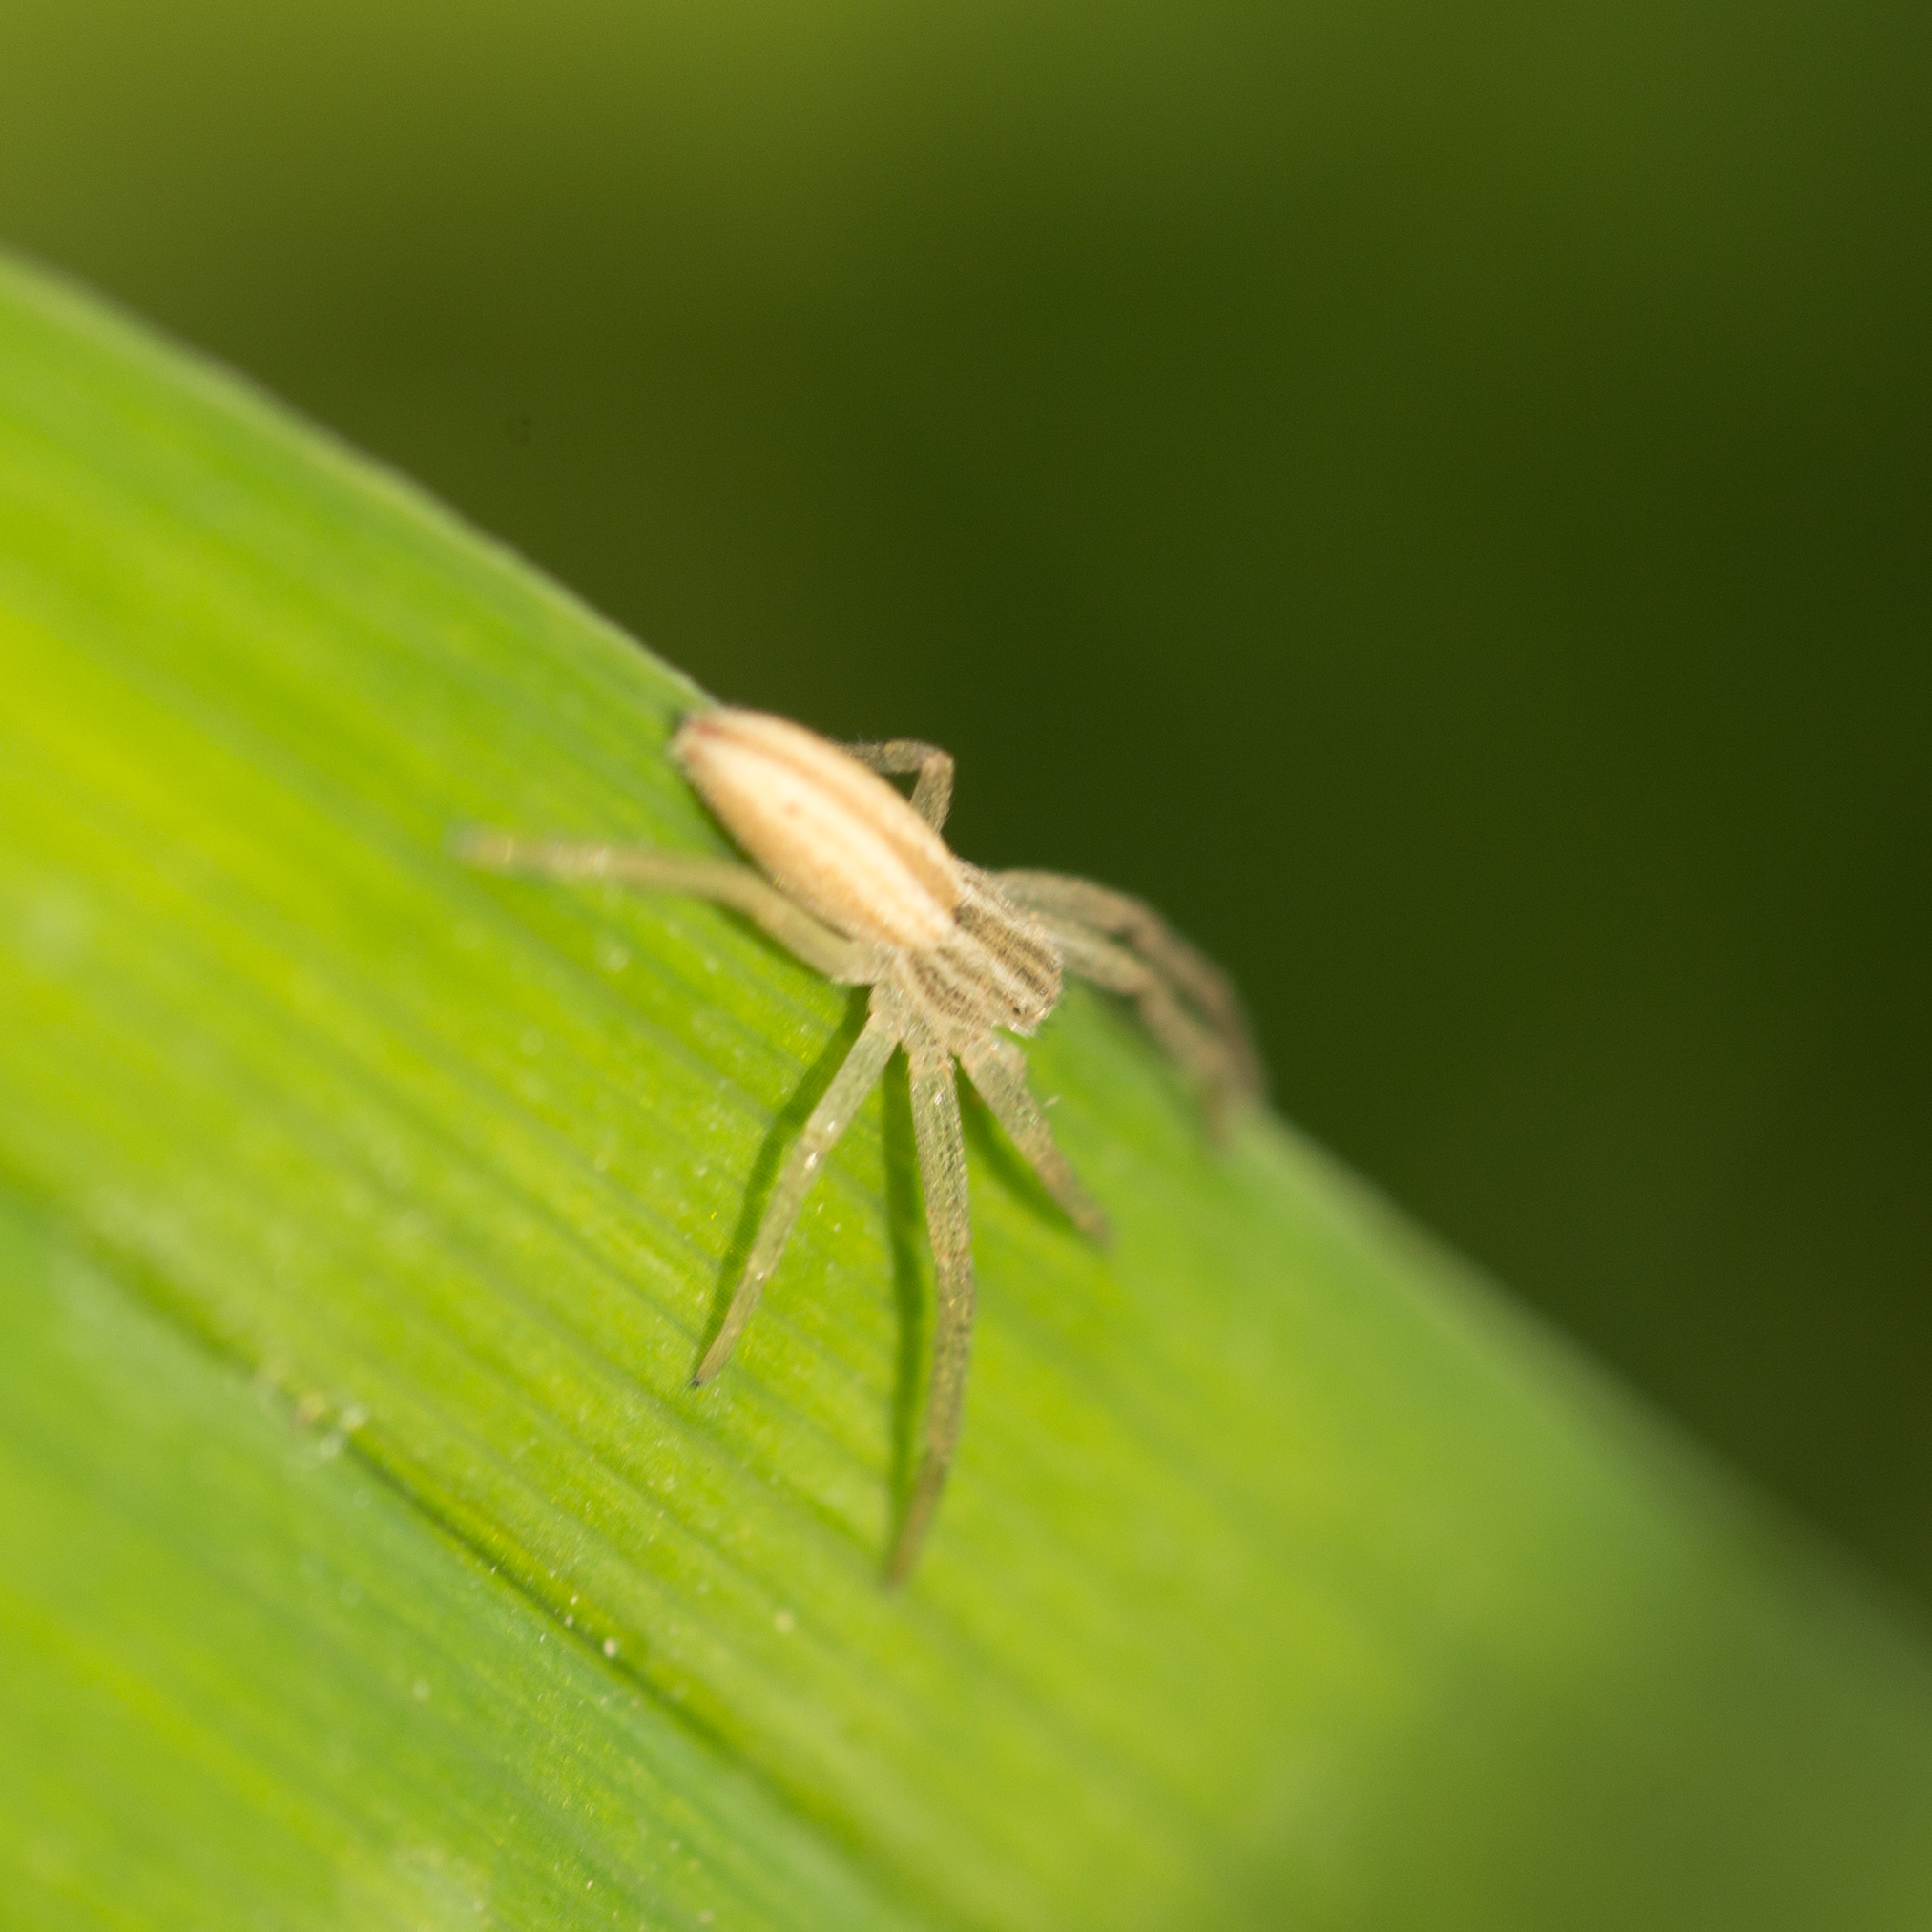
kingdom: Animalia
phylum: Arthropoda
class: Arachnida
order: Araneae
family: Philodromidae
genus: Tibellus
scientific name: Tibellus
